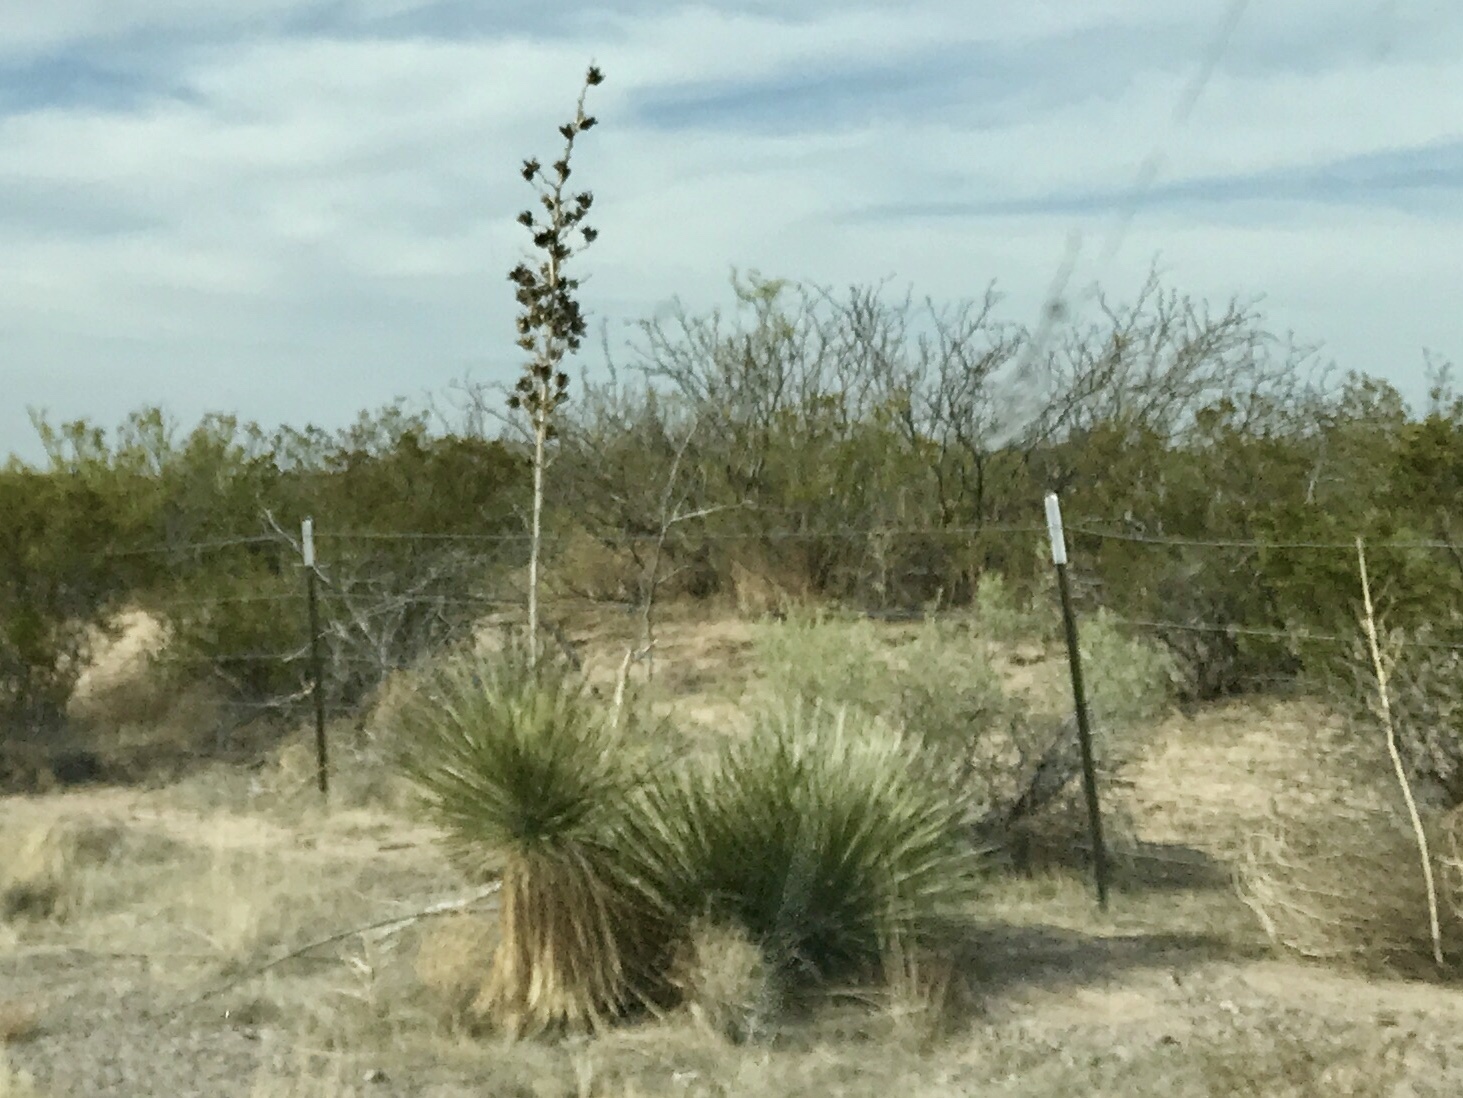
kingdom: Plantae
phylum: Tracheophyta
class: Liliopsida
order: Asparagales
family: Asparagaceae
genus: Yucca
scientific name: Yucca elata
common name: Palmella
